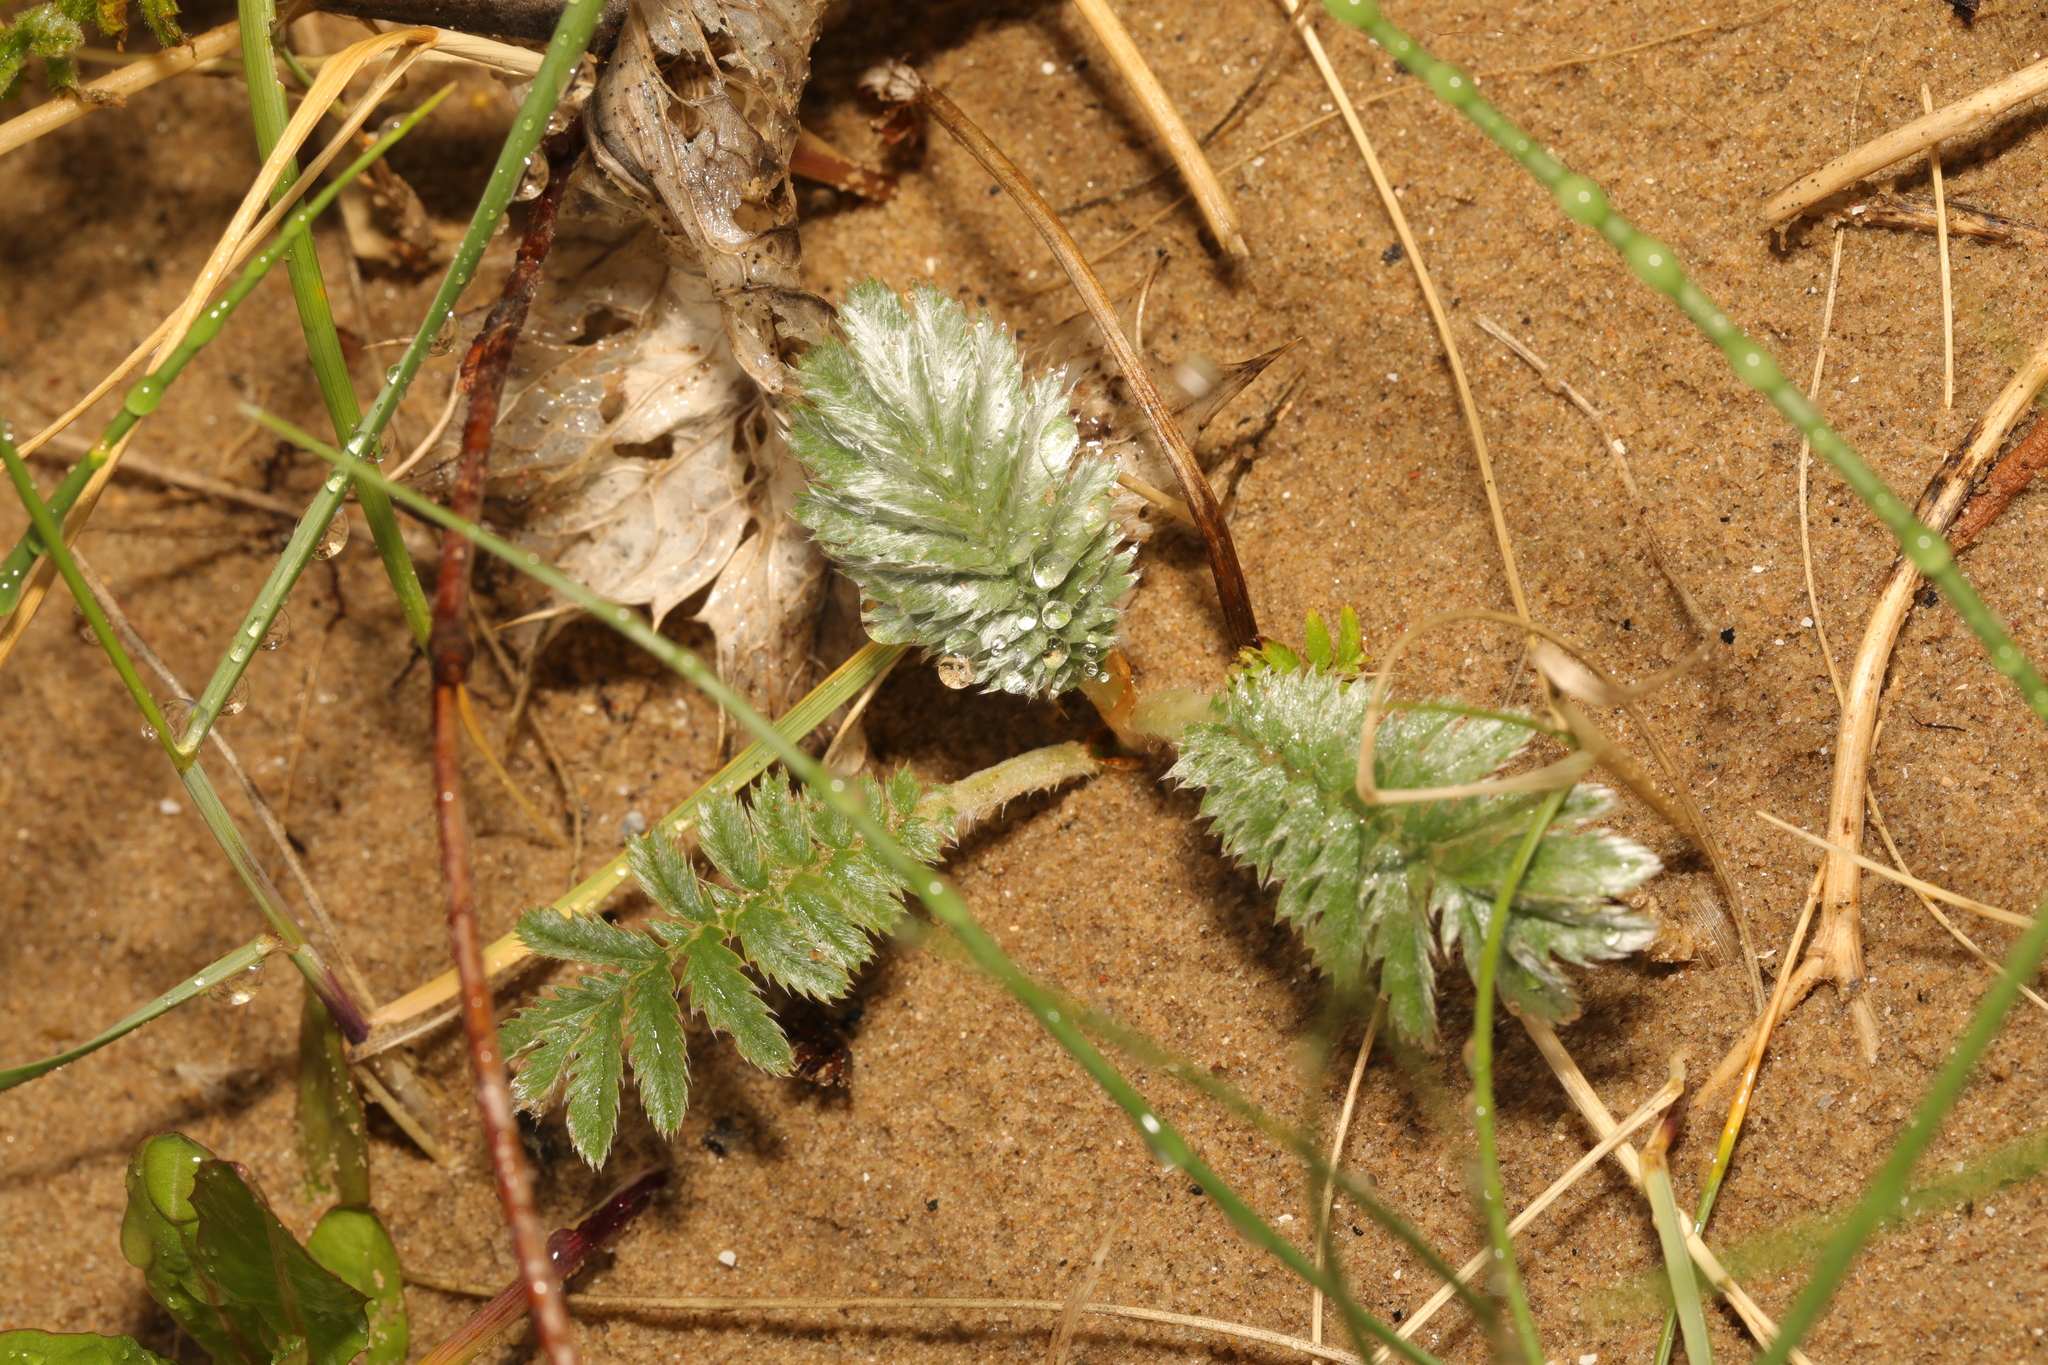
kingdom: Plantae
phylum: Tracheophyta
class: Magnoliopsida
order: Rosales
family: Rosaceae
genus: Argentina
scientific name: Argentina anserina
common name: Common silverweed
